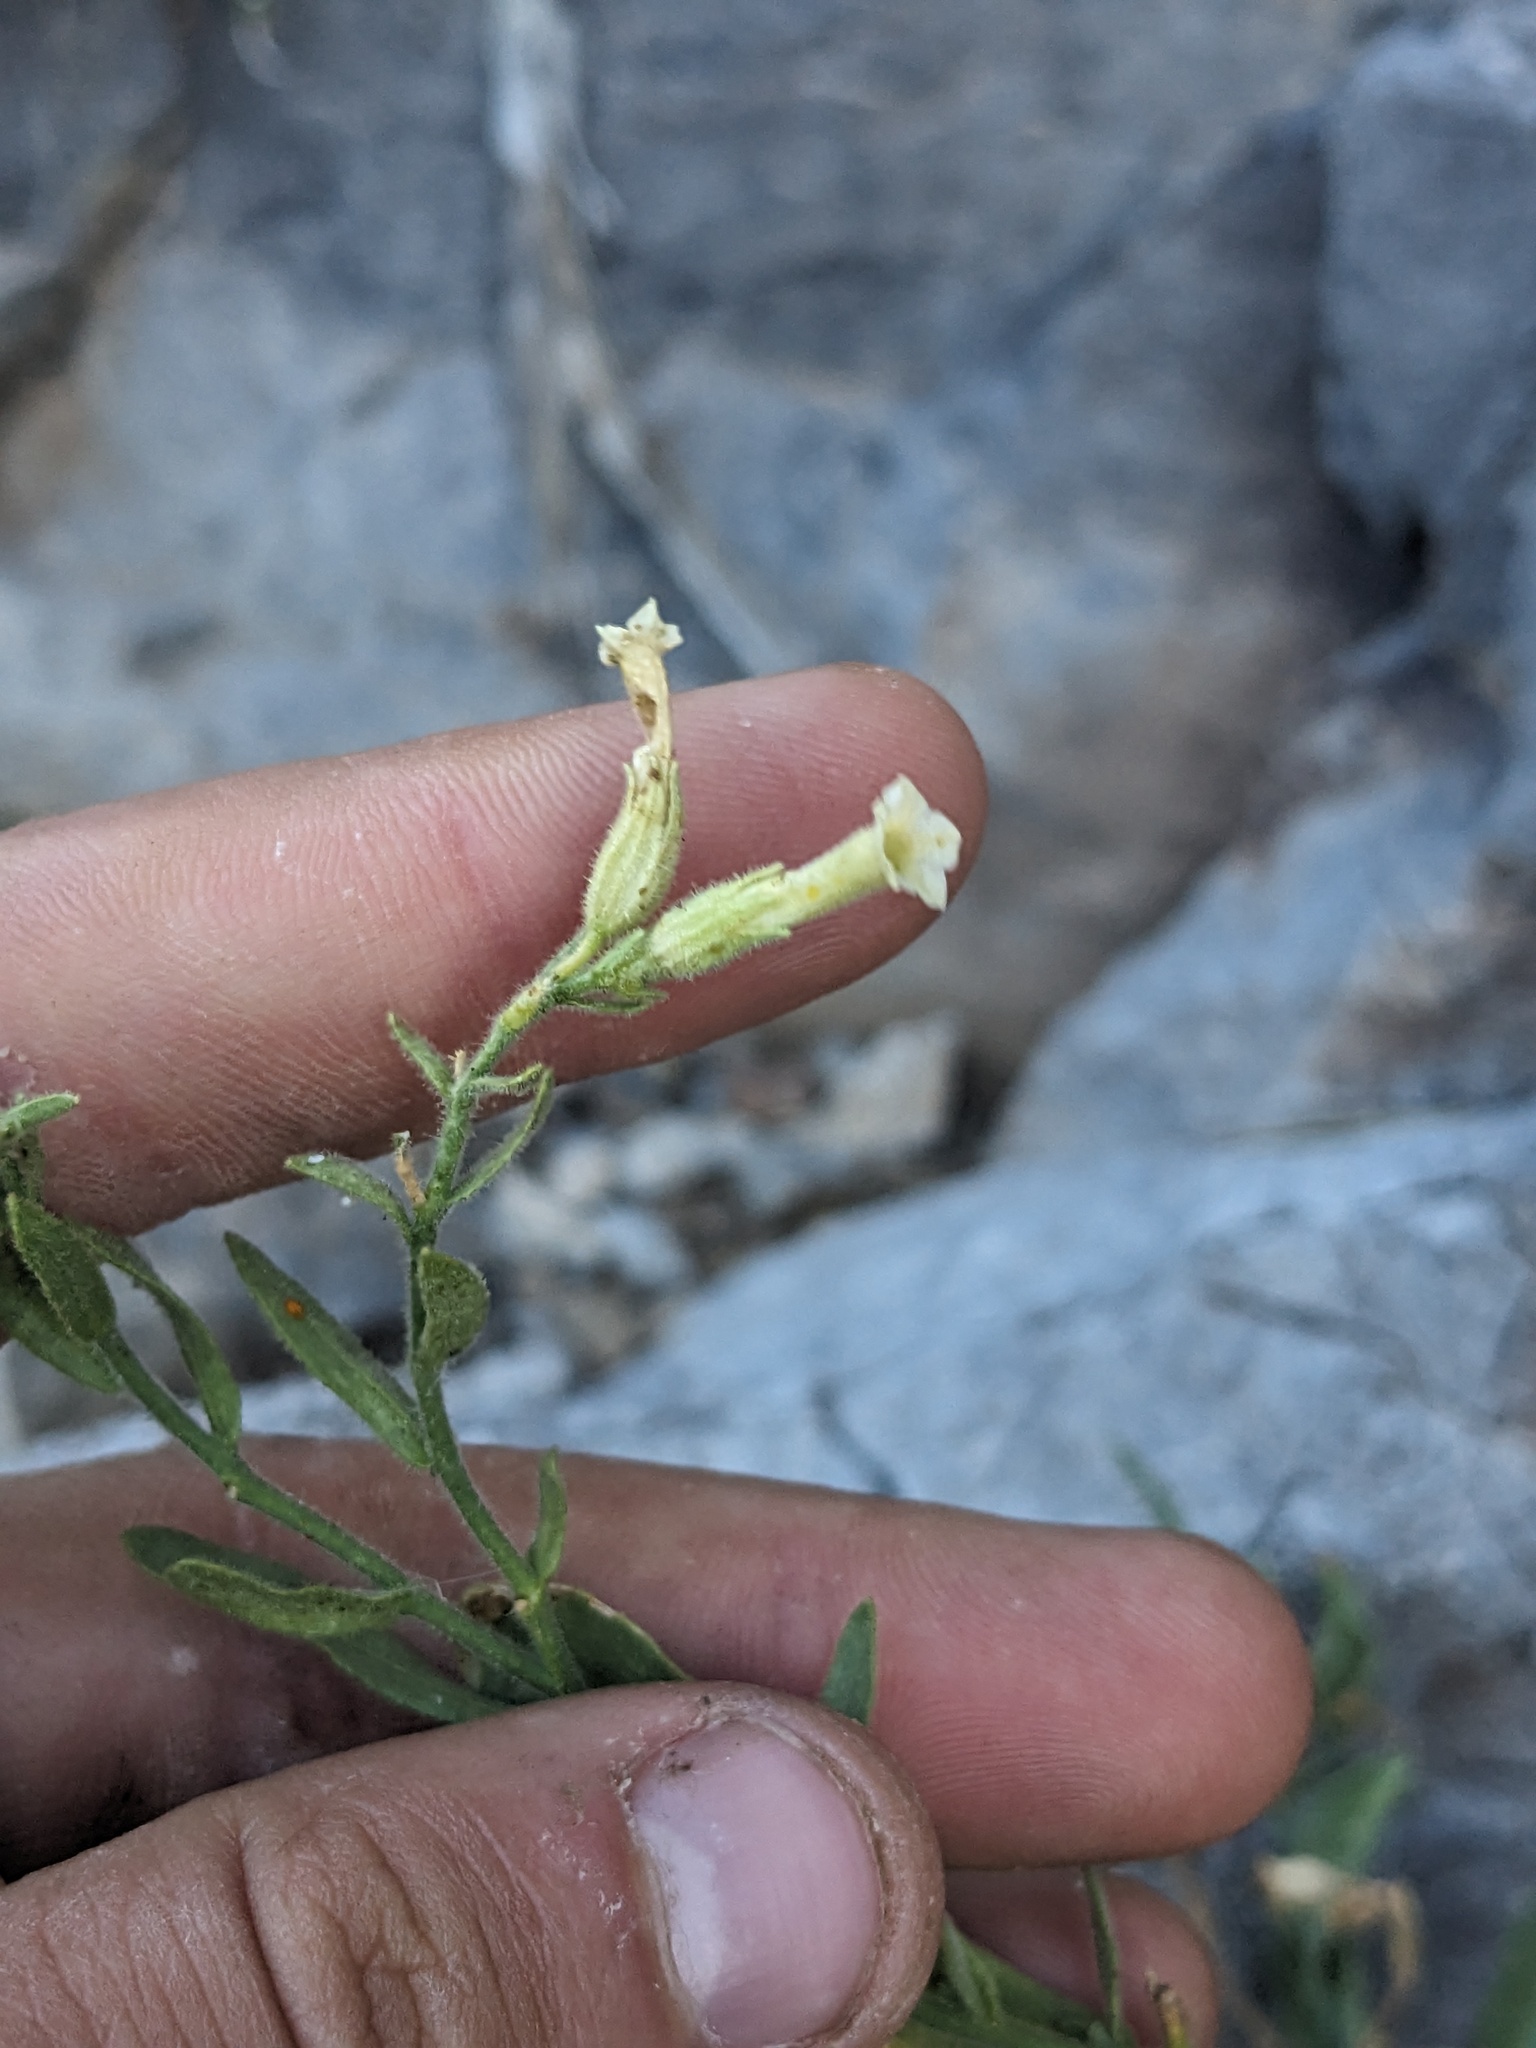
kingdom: Plantae
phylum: Tracheophyta
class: Magnoliopsida
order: Solanales
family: Solanaceae
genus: Nicotiana
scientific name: Nicotiana obtusifolia
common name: Desert tobacco
